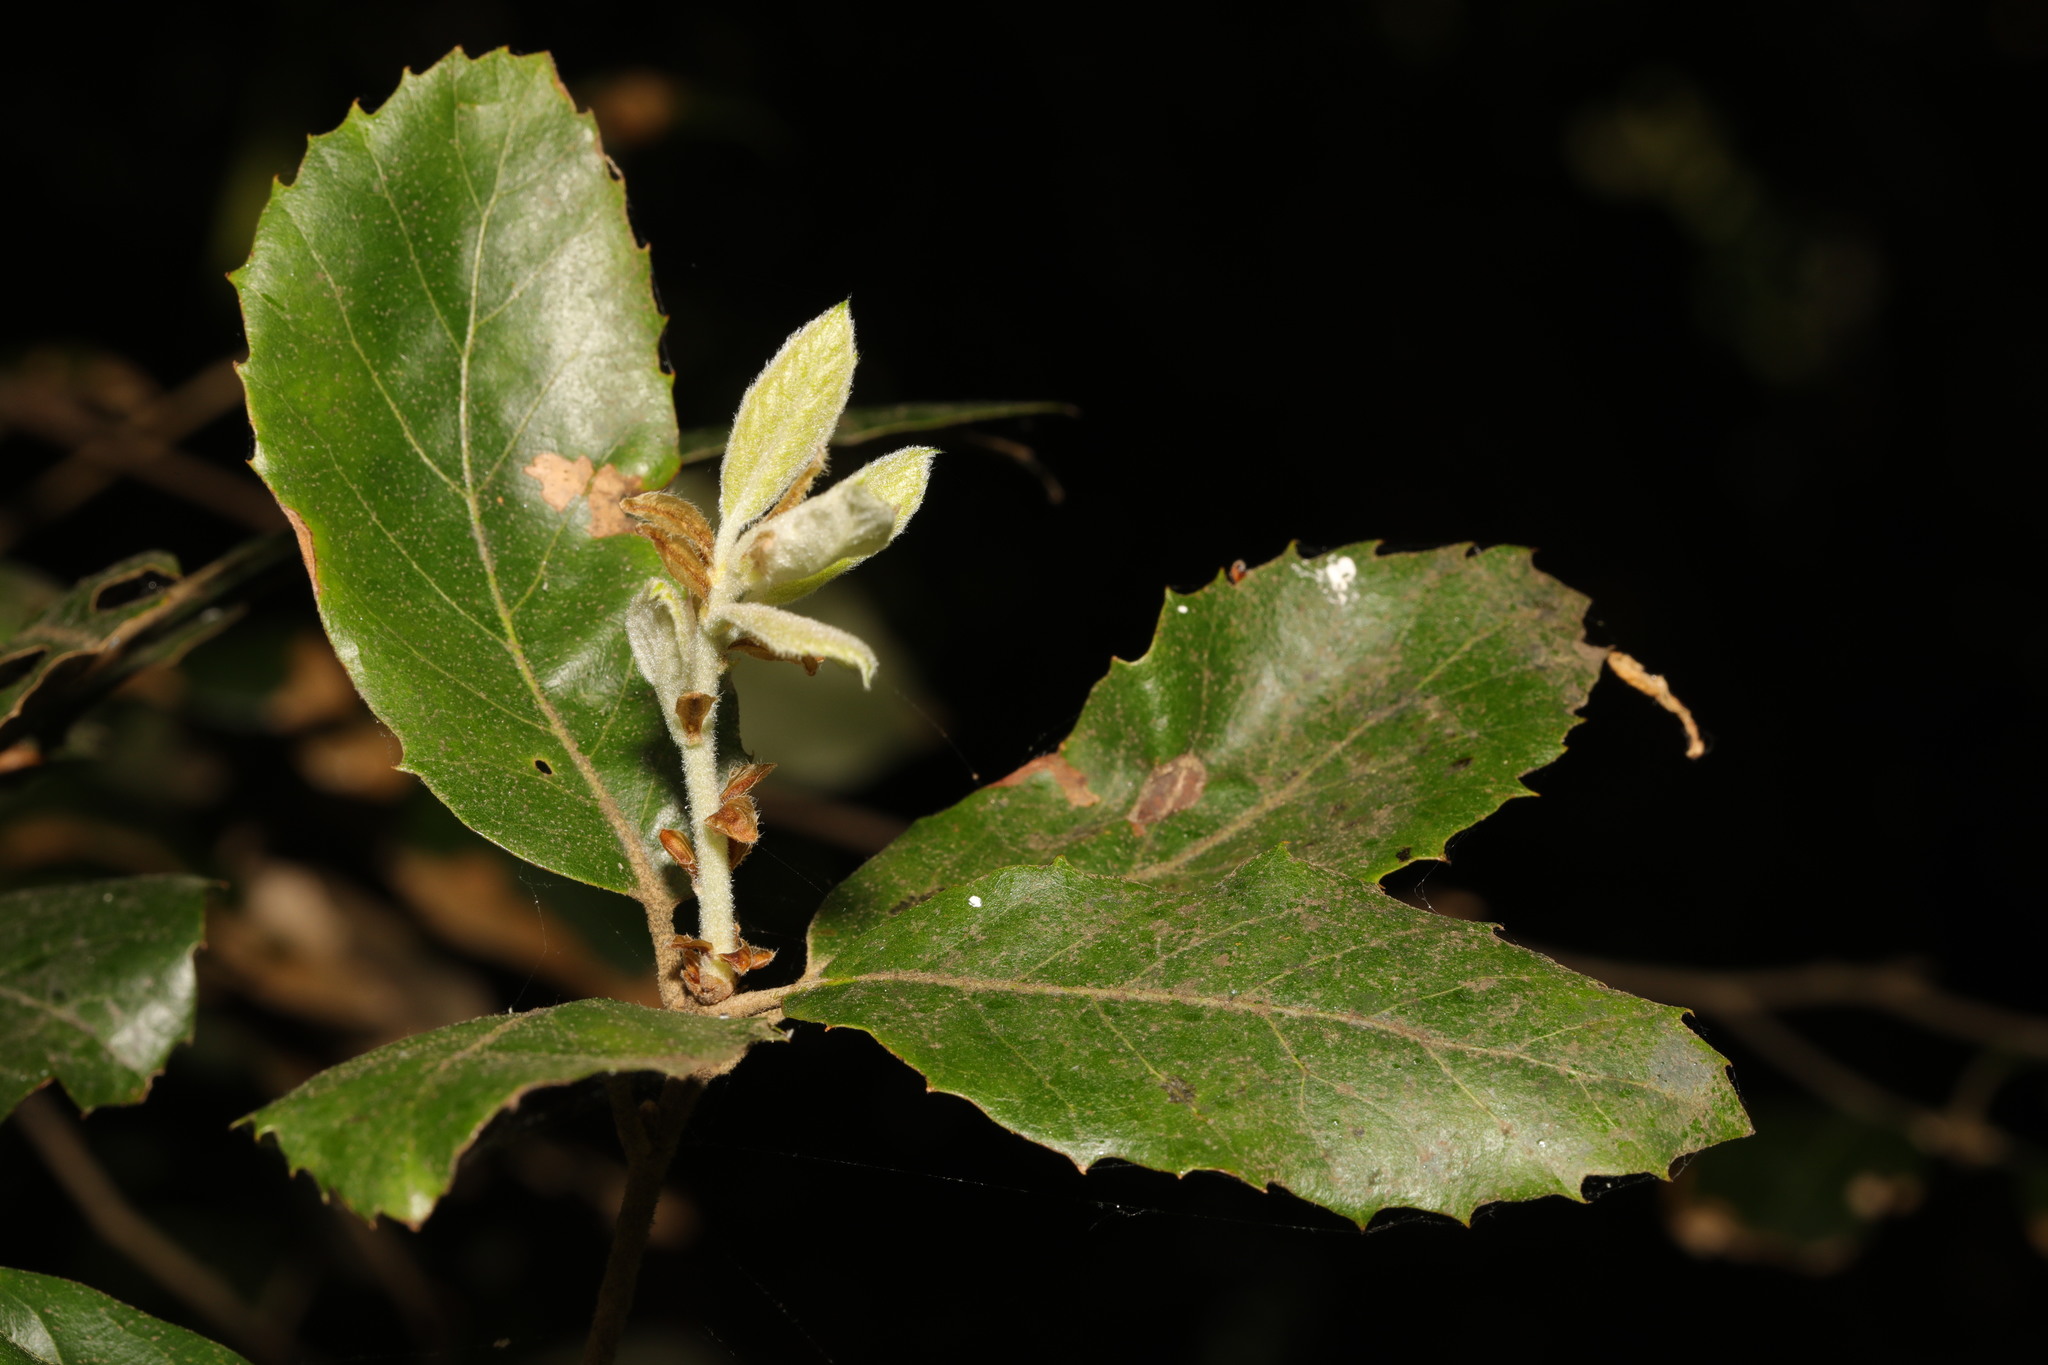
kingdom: Plantae
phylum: Tracheophyta
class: Magnoliopsida
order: Fagales
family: Fagaceae
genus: Quercus
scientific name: Quercus ilex
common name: Evergreen oak
